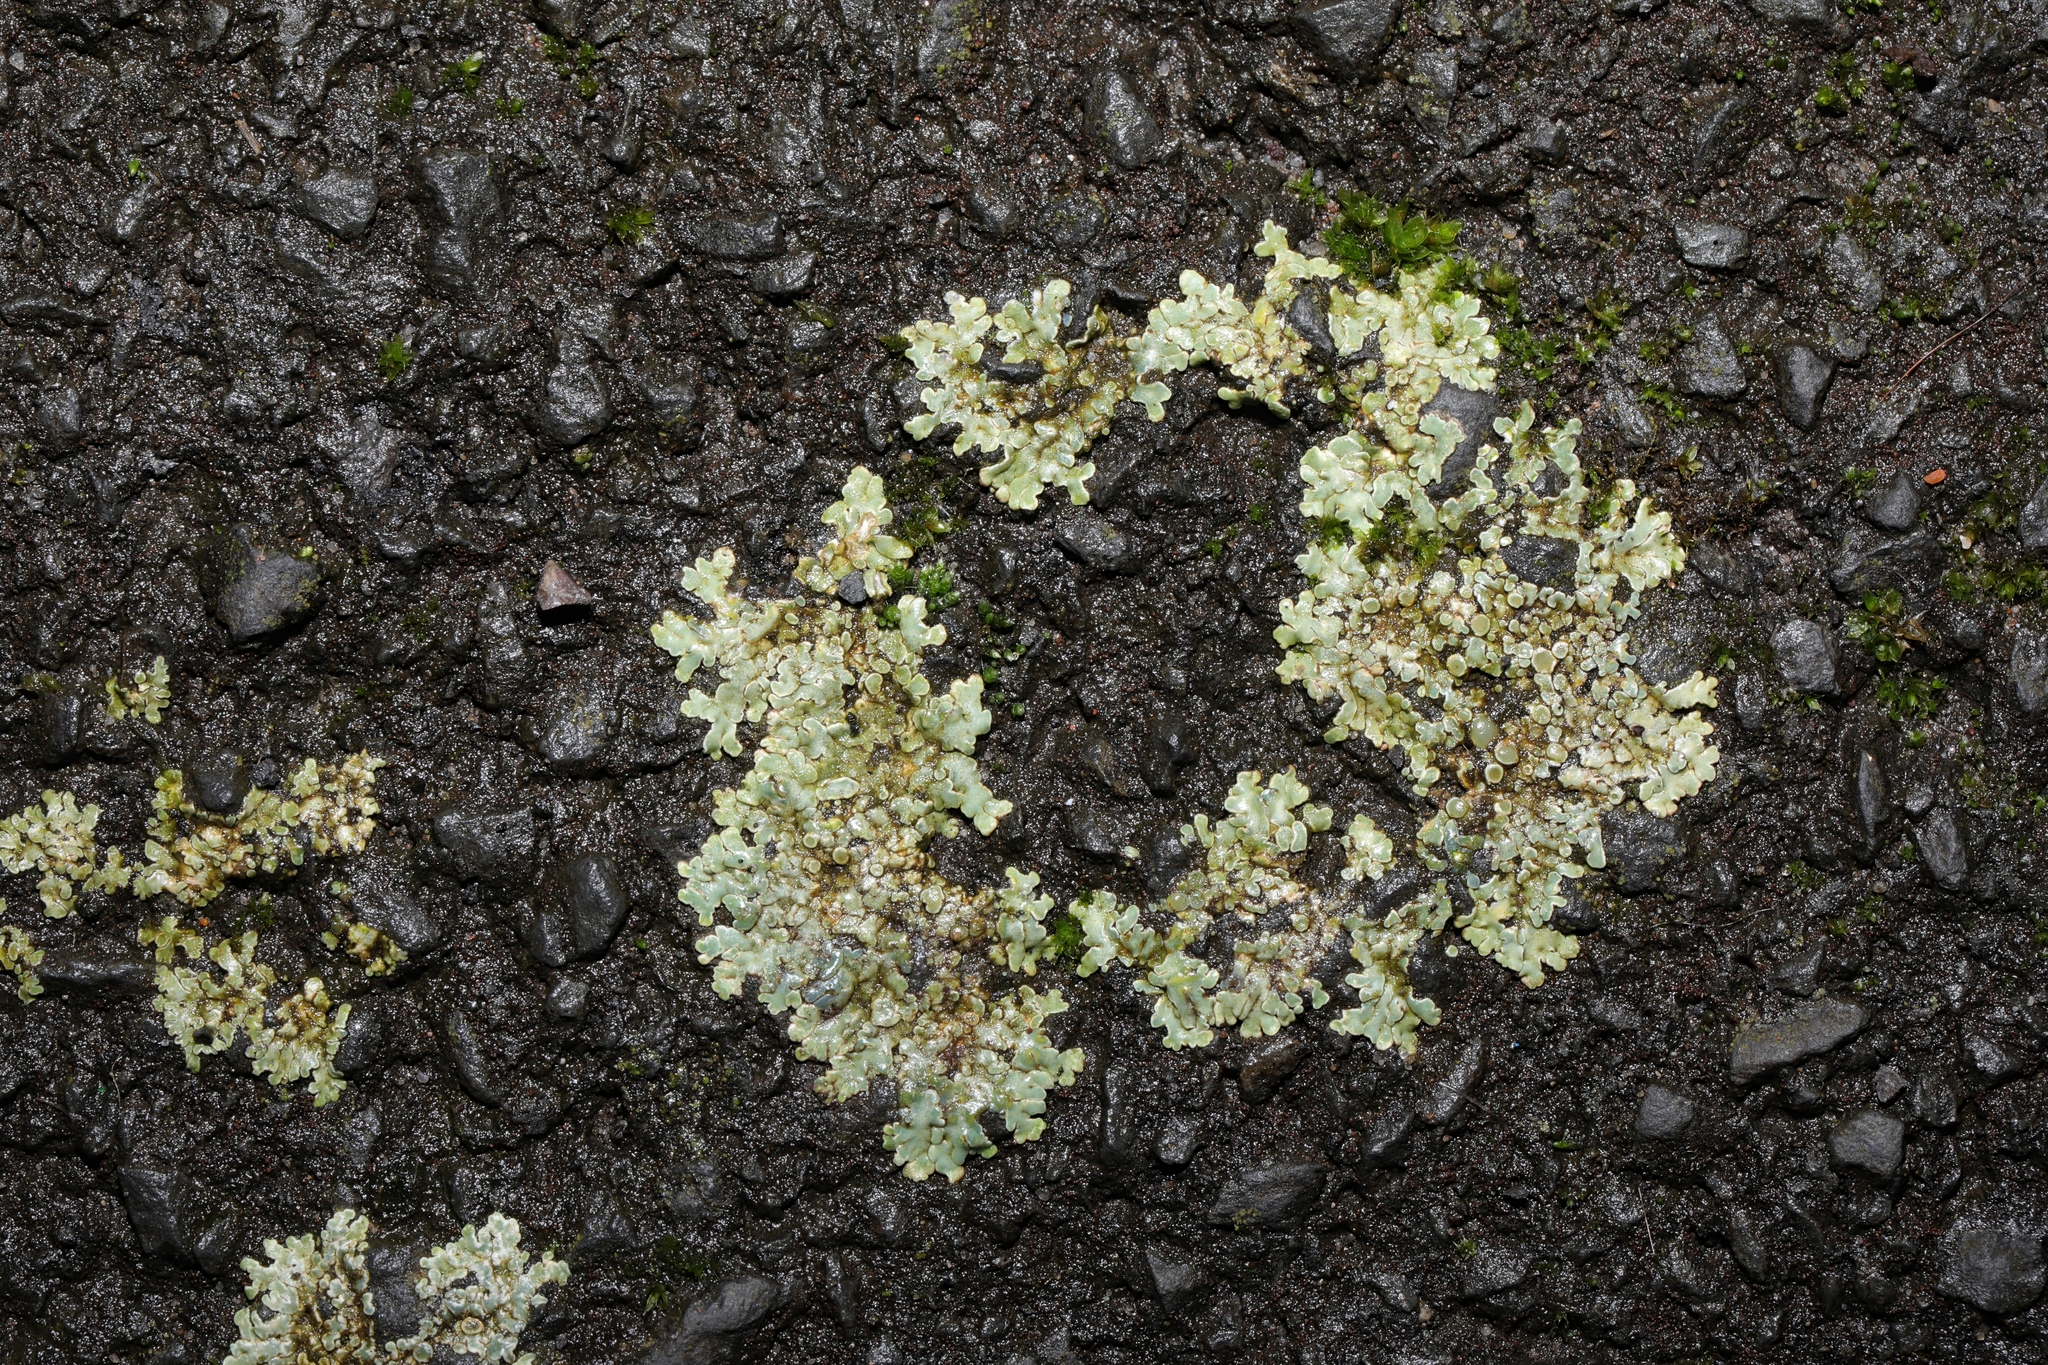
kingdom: Fungi
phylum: Ascomycota
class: Lecanoromycetes
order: Lecanorales
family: Lecanoraceae
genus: Protoparmeliopsis
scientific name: Protoparmeliopsis muralis
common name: Stonewall rim lichen
